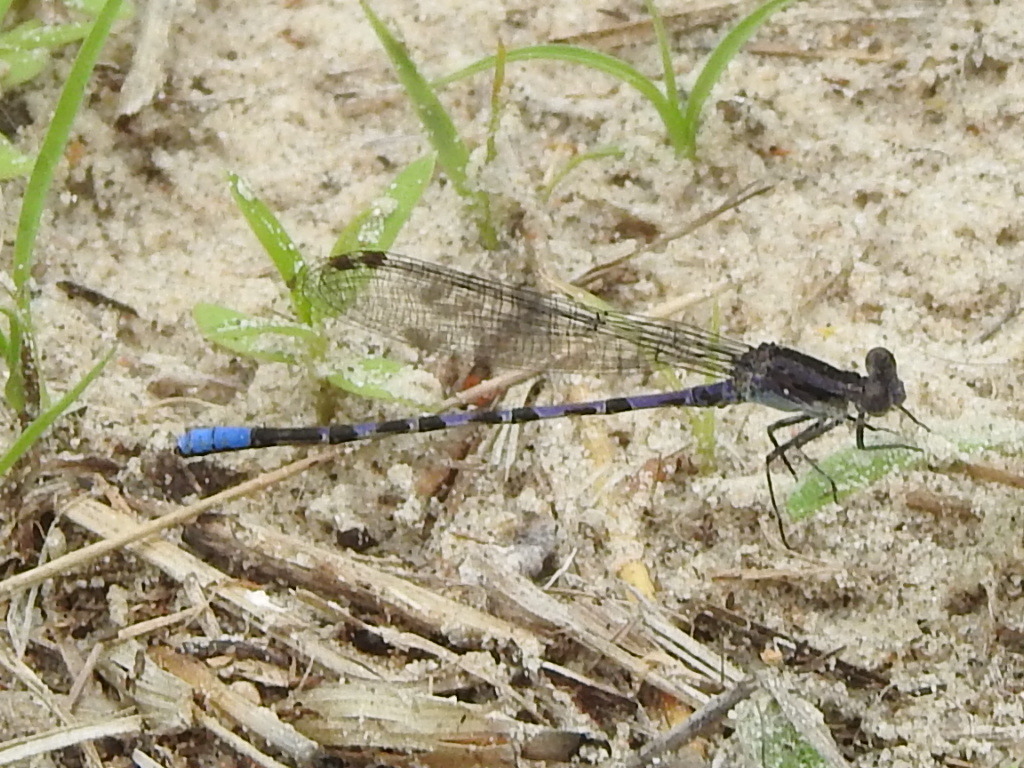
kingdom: Animalia
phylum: Arthropoda
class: Insecta
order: Odonata
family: Coenagrionidae
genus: Argia
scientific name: Argia immunda
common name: Kiowa dancer
